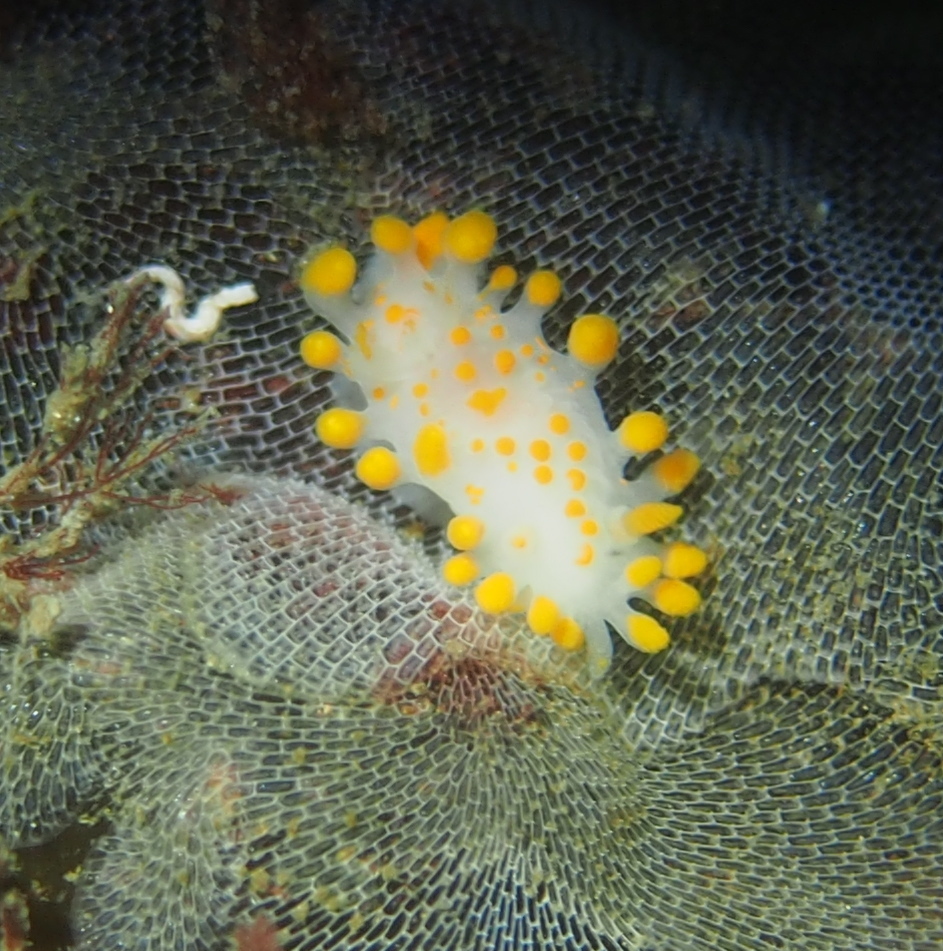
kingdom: Animalia
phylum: Mollusca
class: Gastropoda
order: Nudibranchia
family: Polyceridae
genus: Limacia
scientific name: Limacia clavigera
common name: Orange-clubbed sea slug
